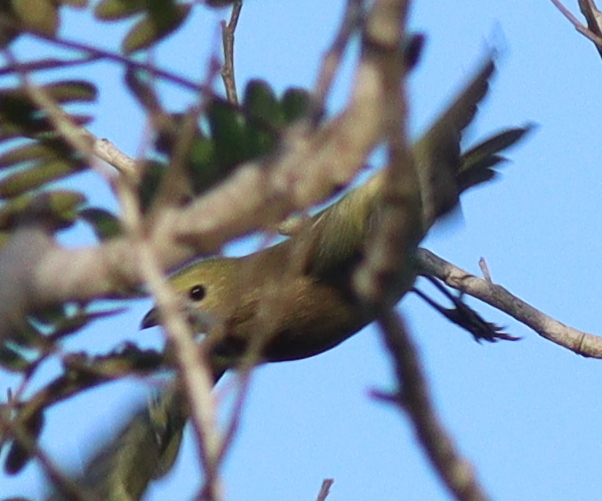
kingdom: Animalia
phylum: Chordata
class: Aves
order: Passeriformes
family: Thraupidae
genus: Thraupis
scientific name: Thraupis palmarum
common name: Palm tanager
